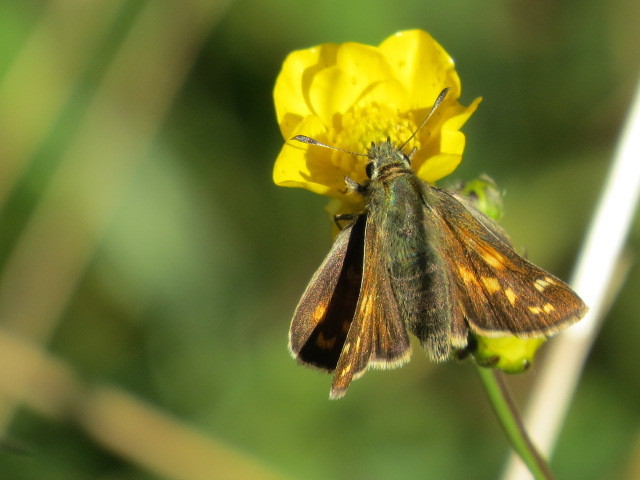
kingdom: Animalia
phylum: Arthropoda
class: Insecta
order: Lepidoptera
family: Hesperiidae
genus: Hesperia
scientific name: Hesperia comma
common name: Common branded skipper
